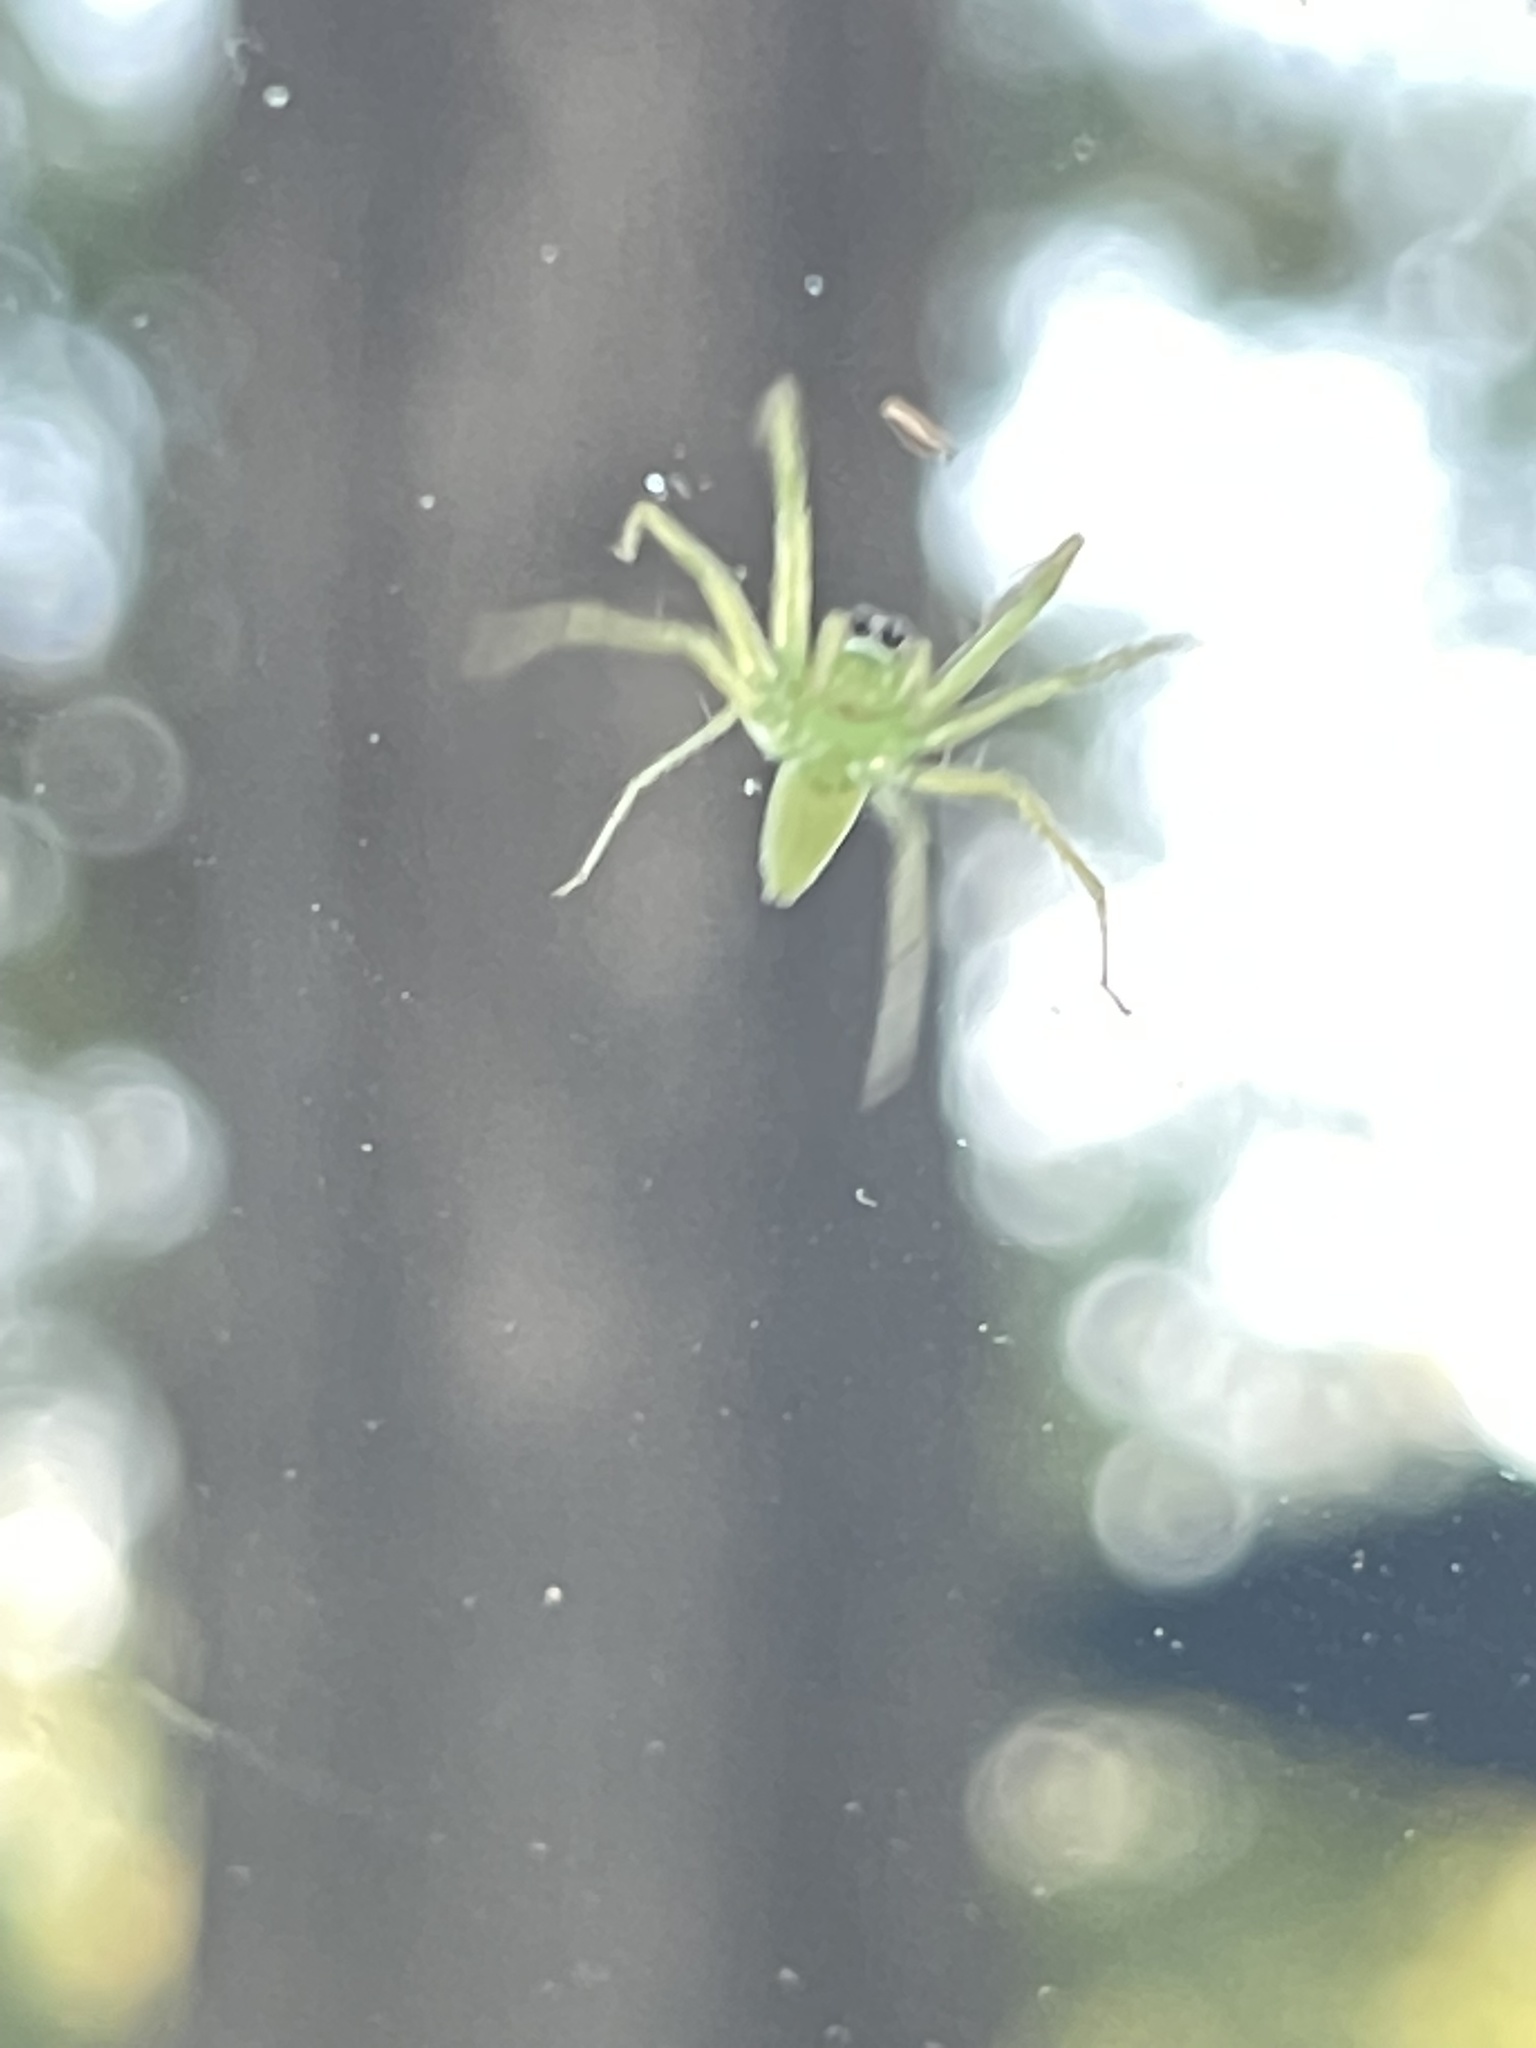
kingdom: Animalia
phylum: Arthropoda
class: Arachnida
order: Araneae
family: Salticidae
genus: Lyssomanes
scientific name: Lyssomanes viridis
